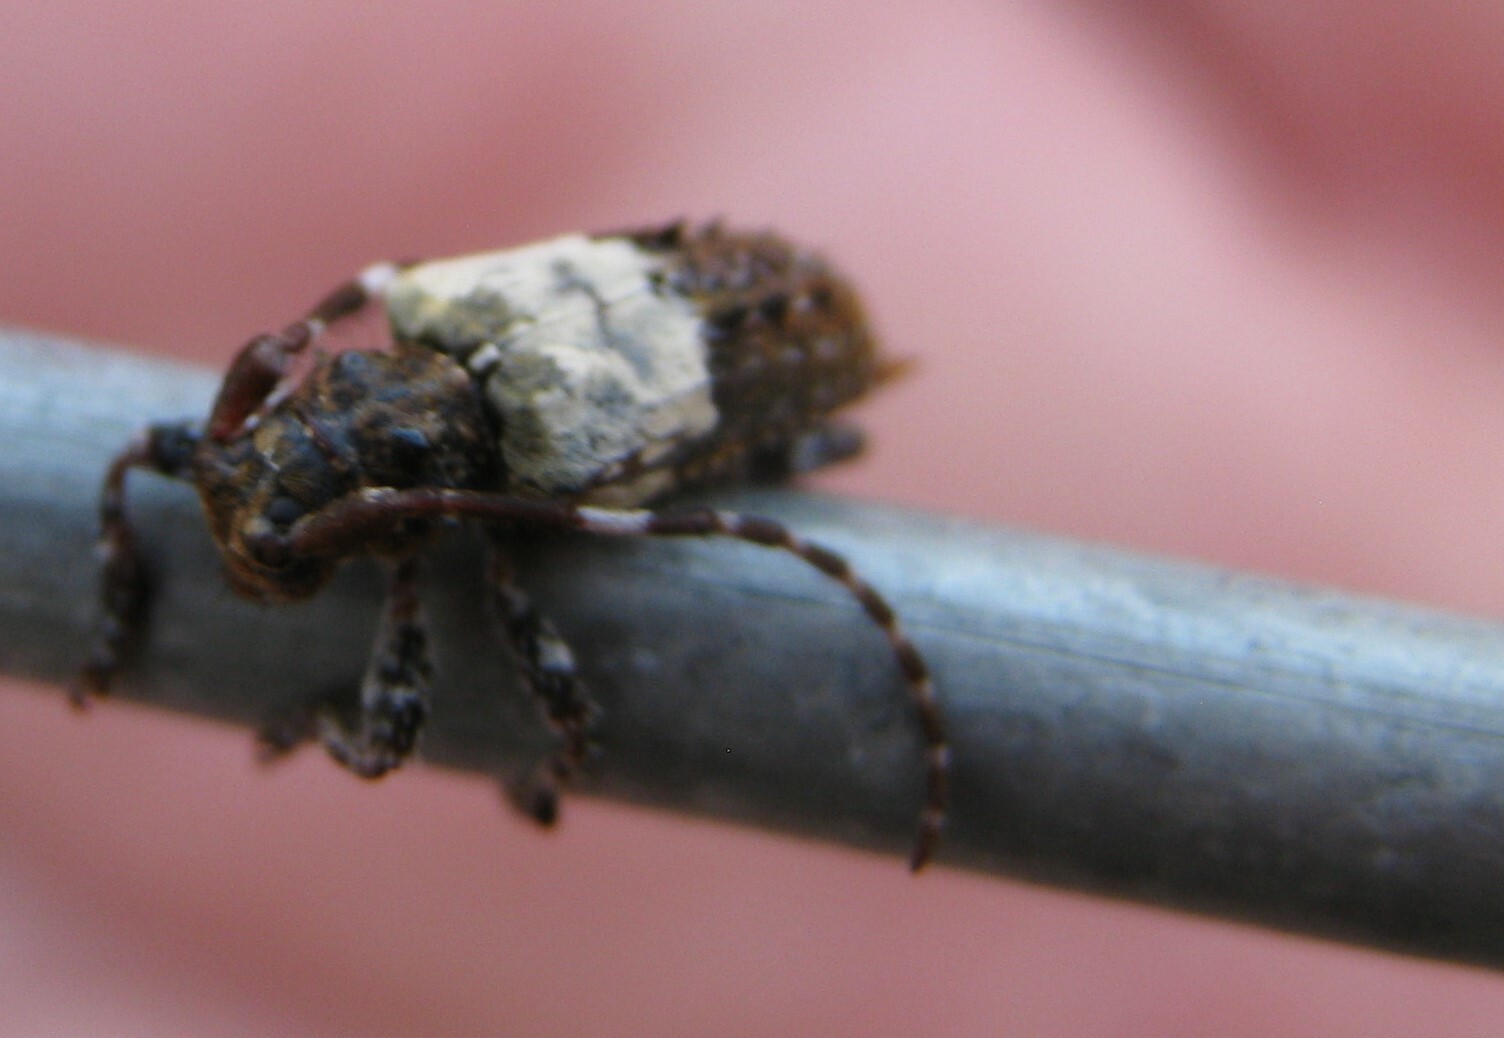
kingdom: Animalia
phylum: Arthropoda
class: Insecta
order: Coleoptera
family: Cerambycidae
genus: Pogonocherus
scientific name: Pogonocherus hispidulus
